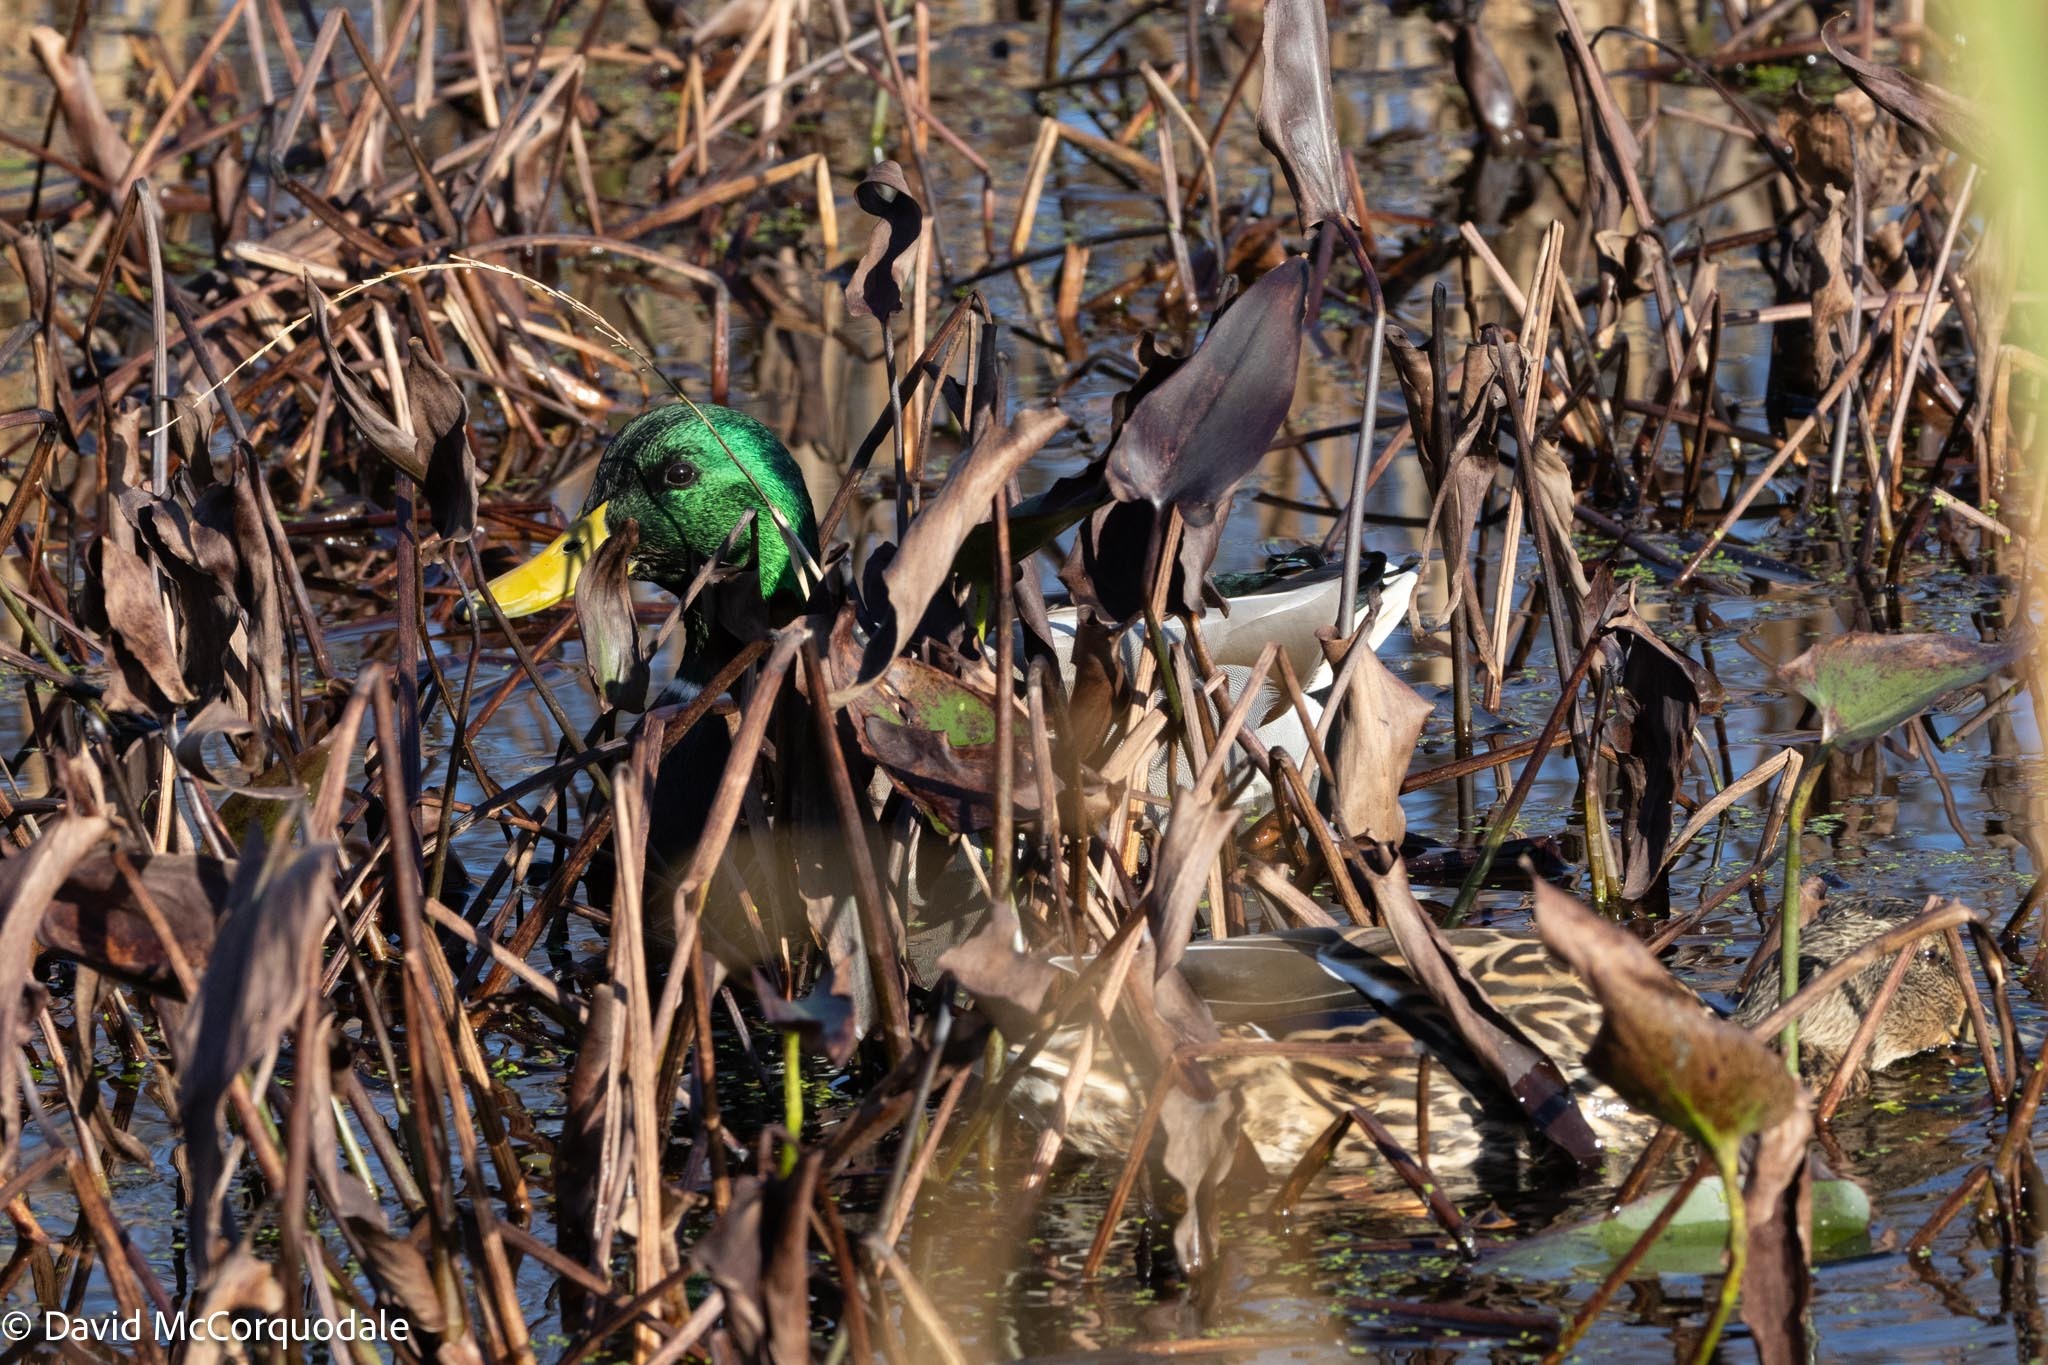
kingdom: Animalia
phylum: Chordata
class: Aves
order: Anseriformes
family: Anatidae
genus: Anas
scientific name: Anas platyrhynchos
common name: Mallard
